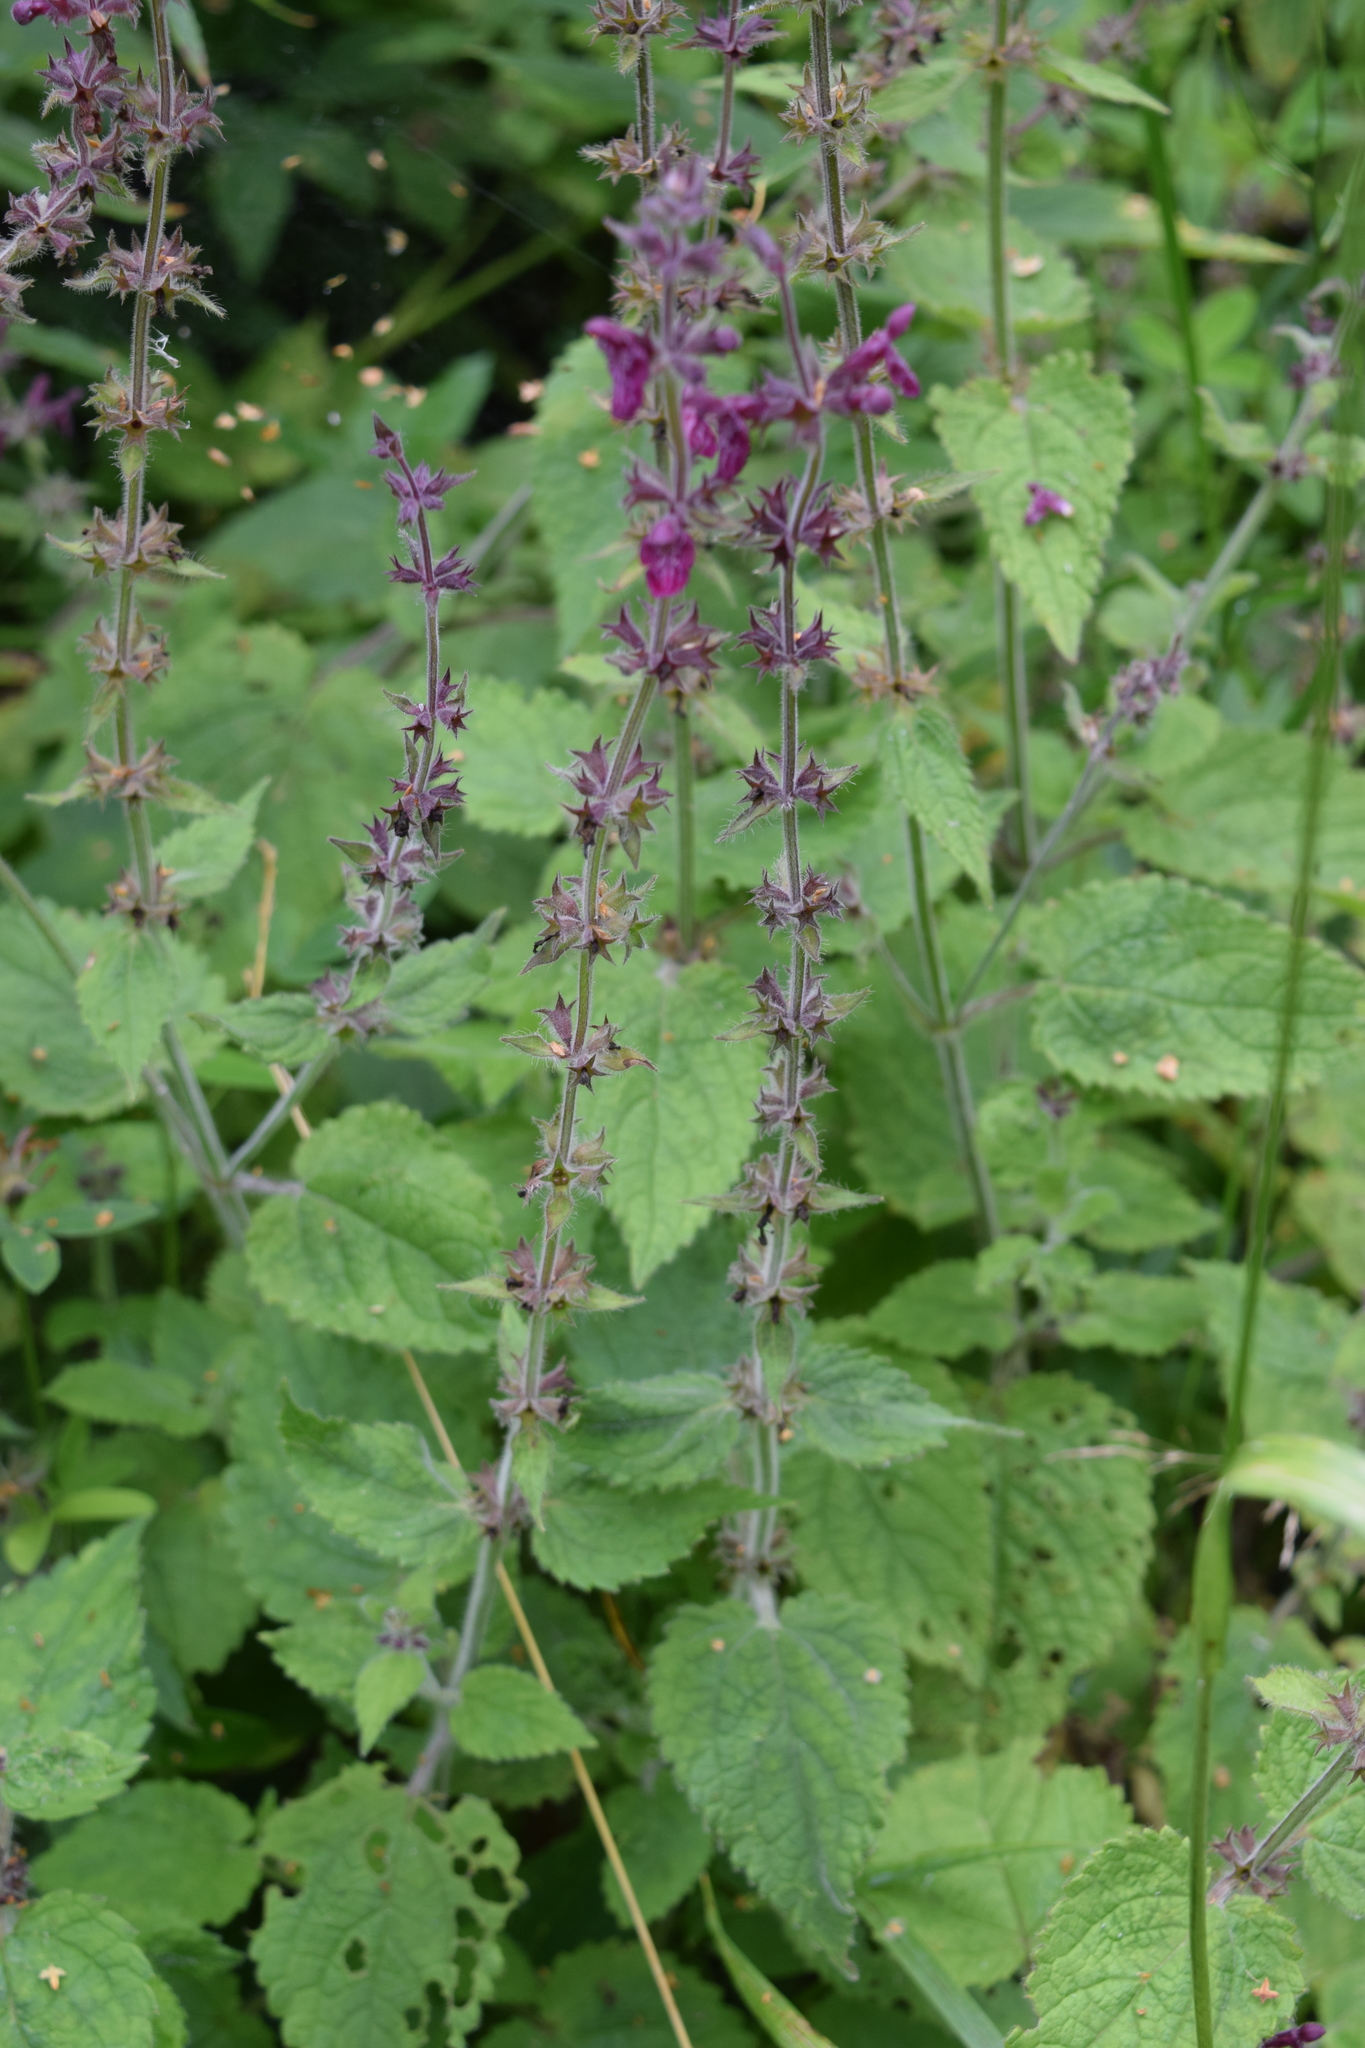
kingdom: Plantae
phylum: Tracheophyta
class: Magnoliopsida
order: Lamiales
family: Lamiaceae
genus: Stachys
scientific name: Stachys sylvatica
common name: Hedge woundwort
